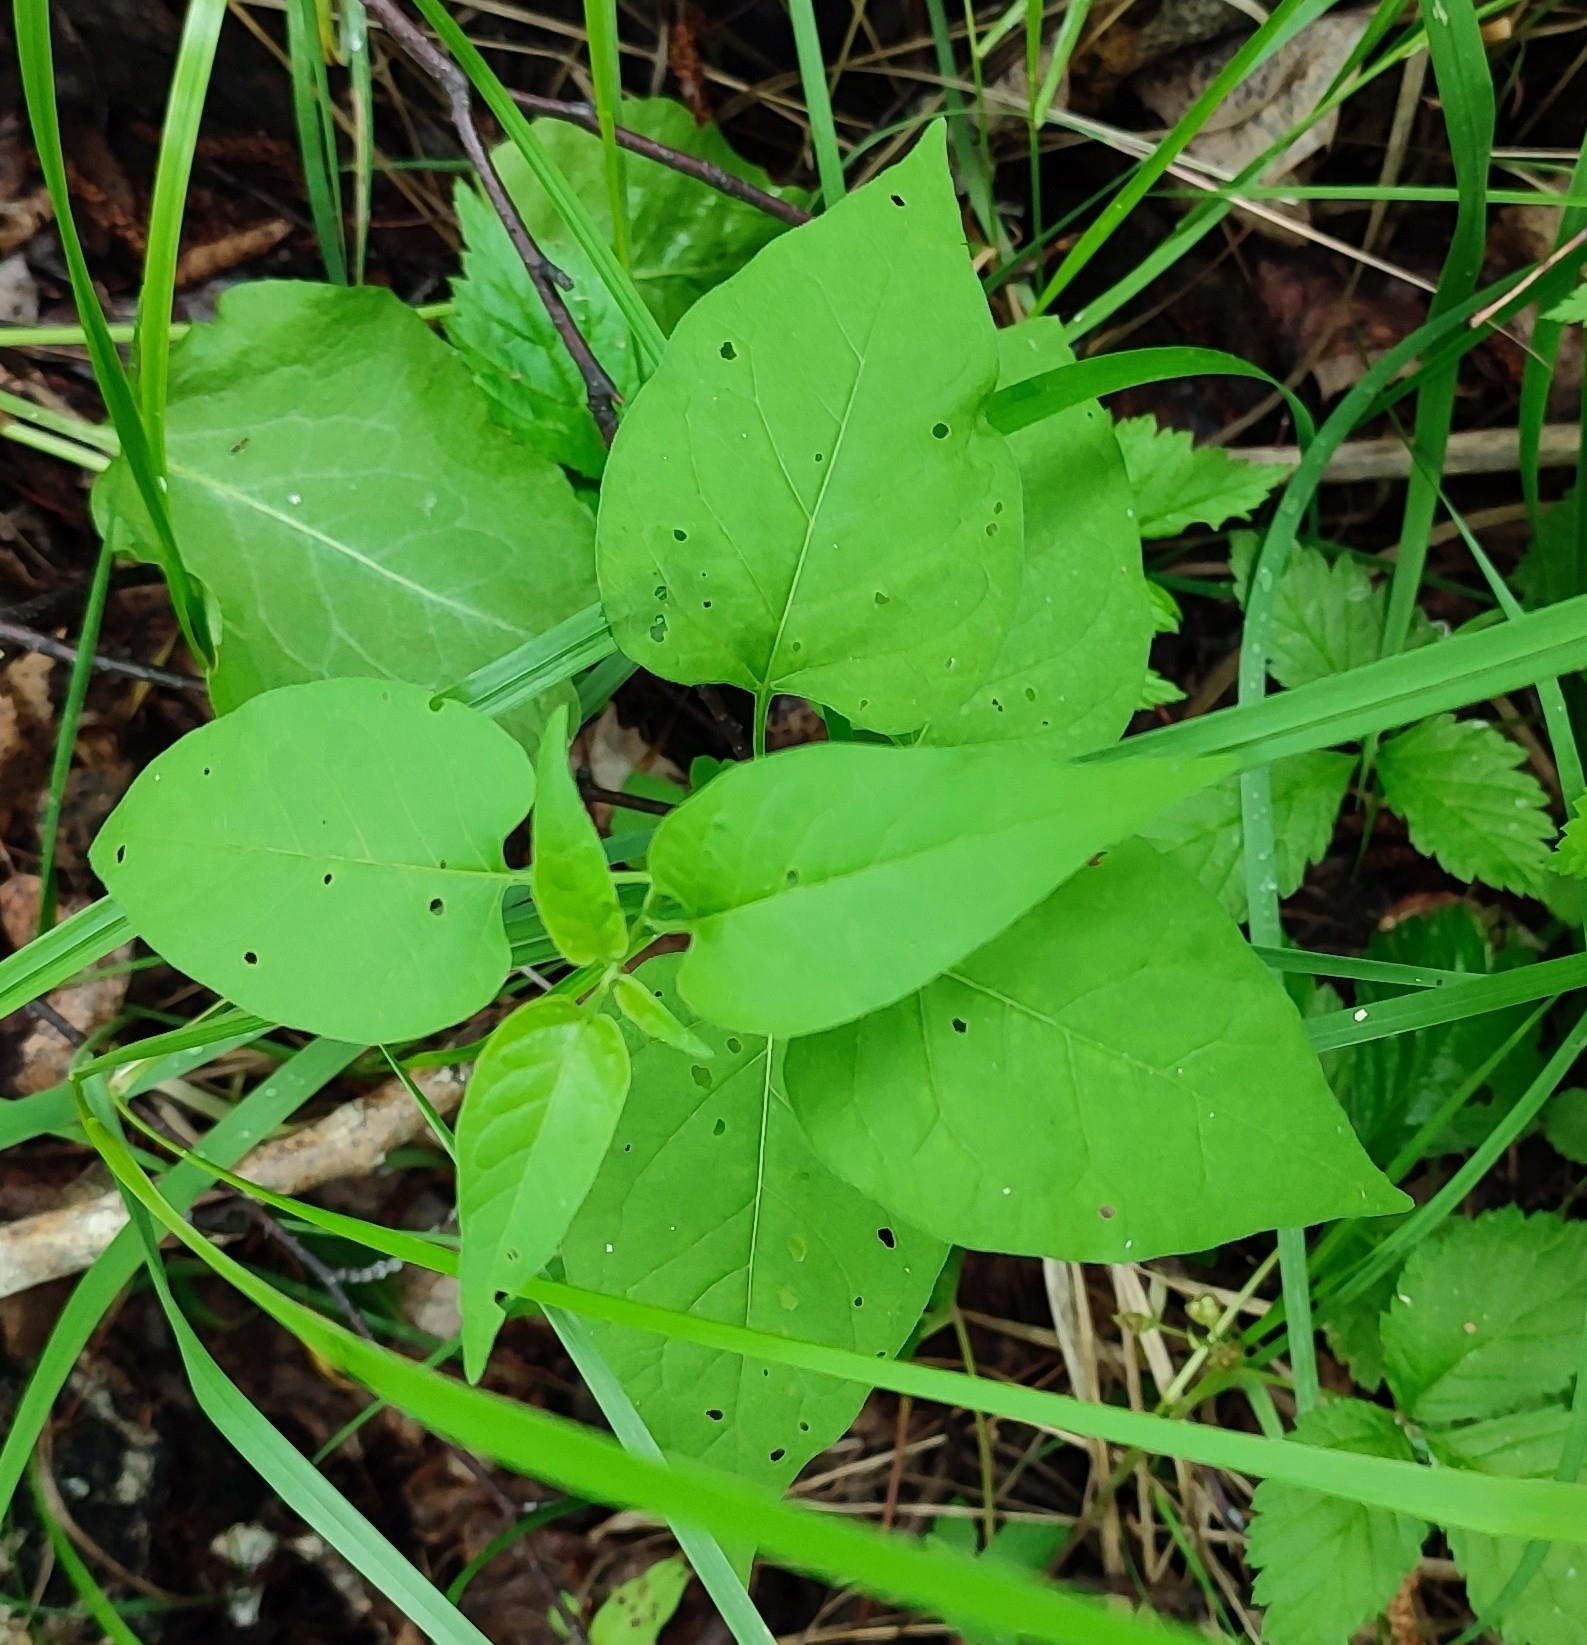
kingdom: Plantae
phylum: Tracheophyta
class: Magnoliopsida
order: Solanales
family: Solanaceae
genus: Solanum
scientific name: Solanum dulcamara
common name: Climbing nightshade
